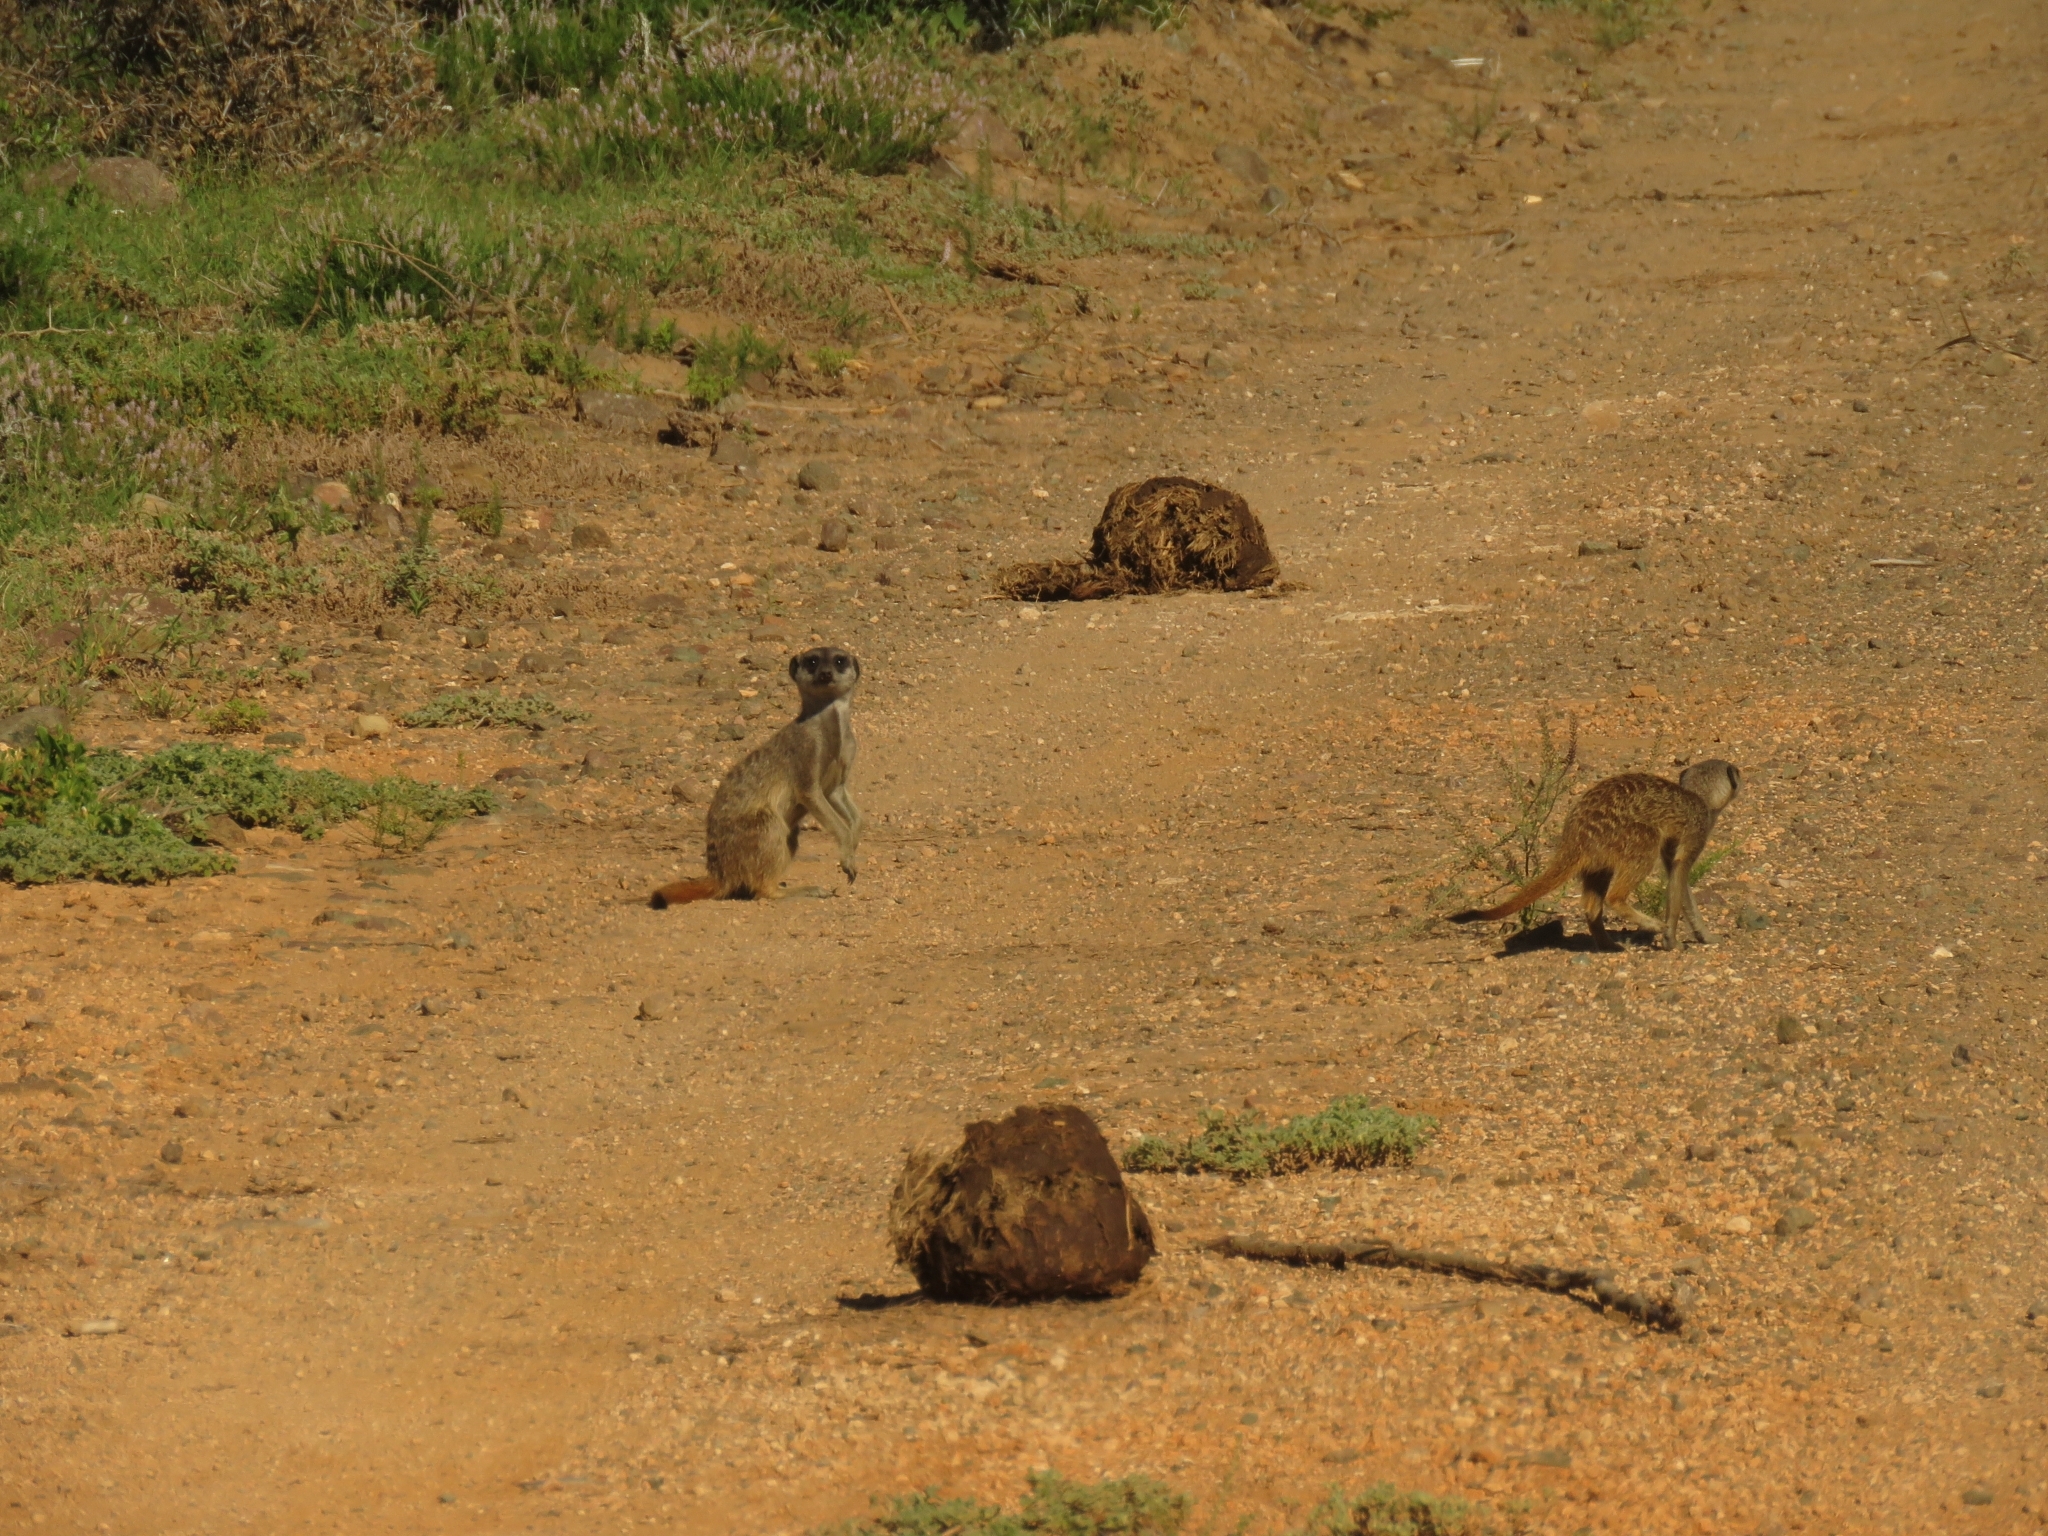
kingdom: Animalia
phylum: Chordata
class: Mammalia
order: Carnivora
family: Herpestidae
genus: Suricata
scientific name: Suricata suricatta
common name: Meerkat
